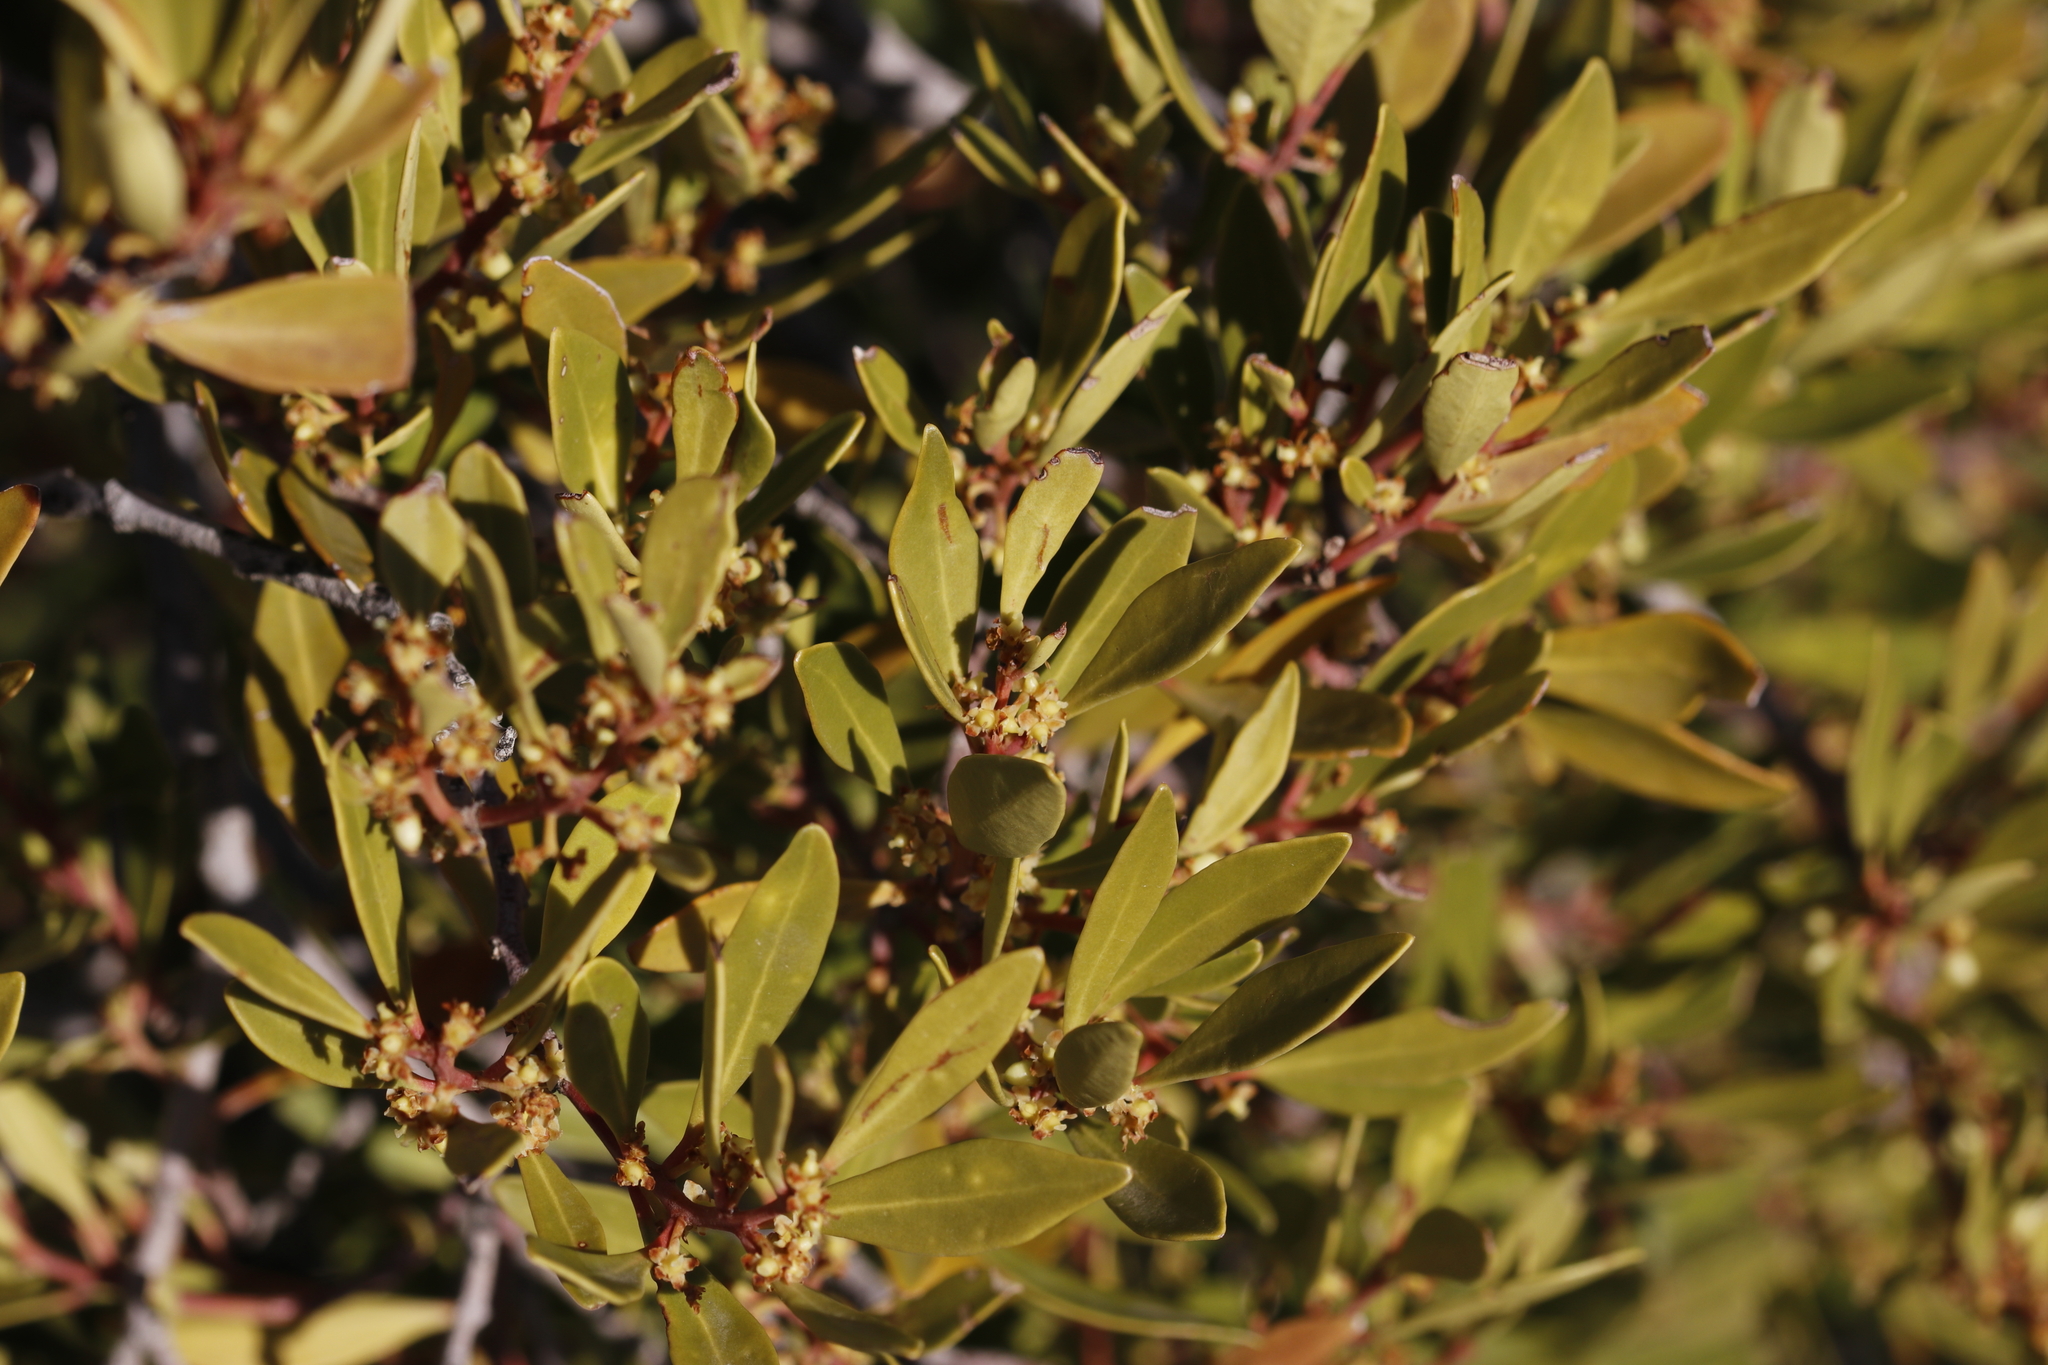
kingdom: Plantae
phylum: Tracheophyta
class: Magnoliopsida
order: Celastrales
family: Celastraceae
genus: Gymnosporia
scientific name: Gymnosporia laurina
